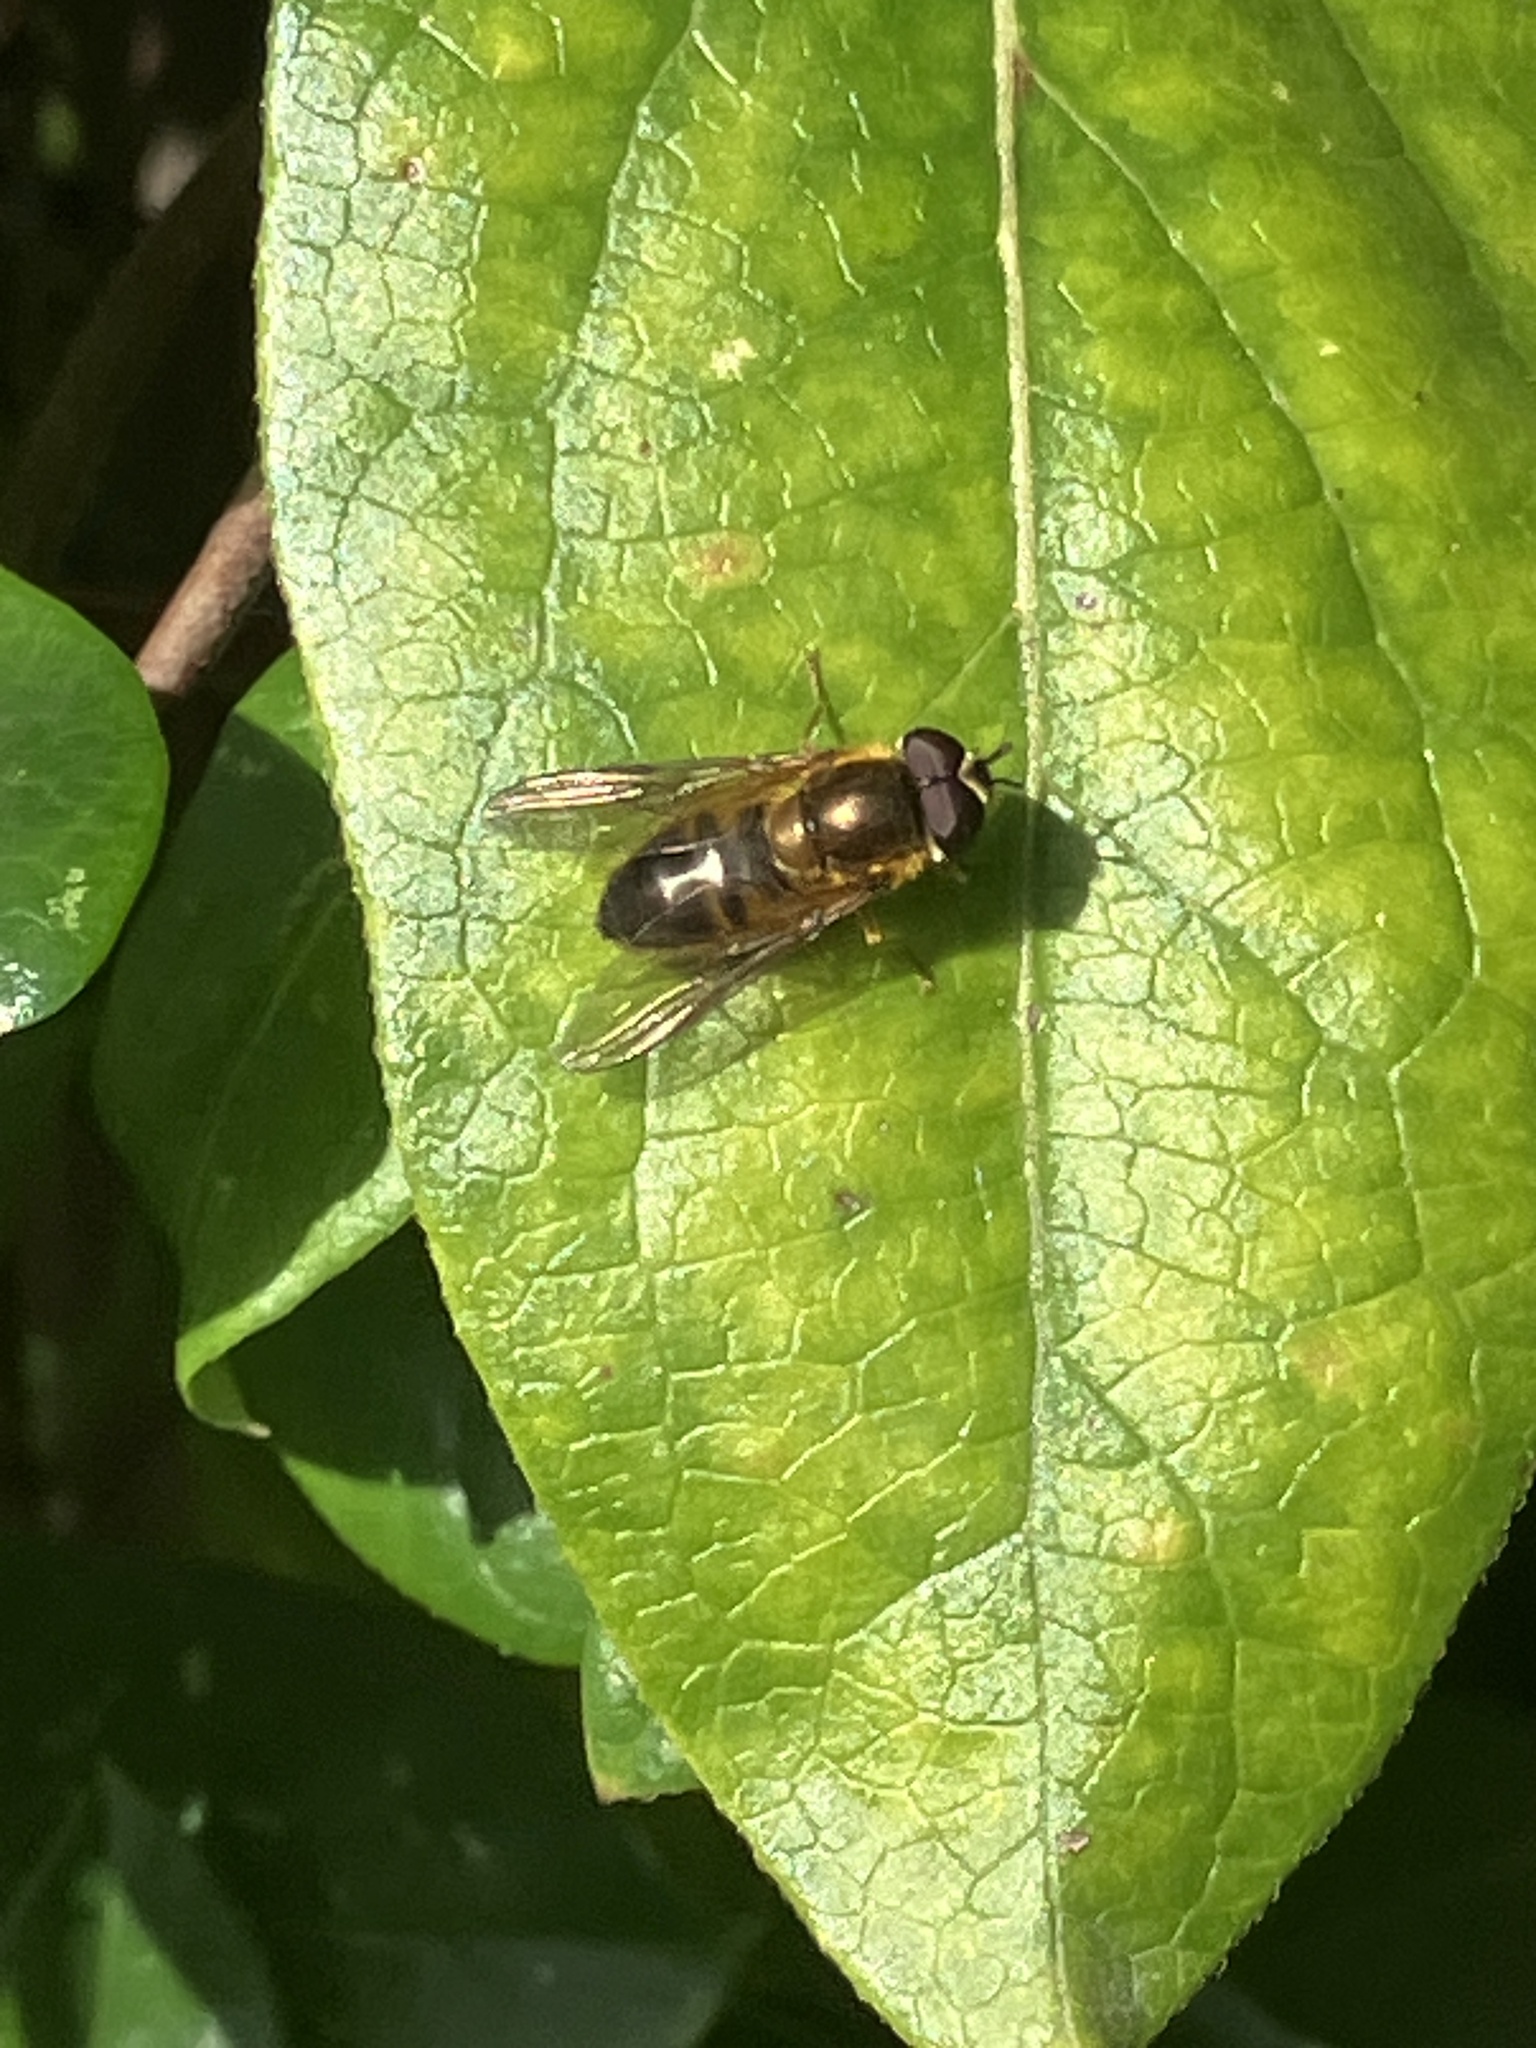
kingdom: Animalia
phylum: Arthropoda
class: Insecta
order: Diptera
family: Syrphidae
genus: Epistrophe
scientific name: Epistrophe eligans
